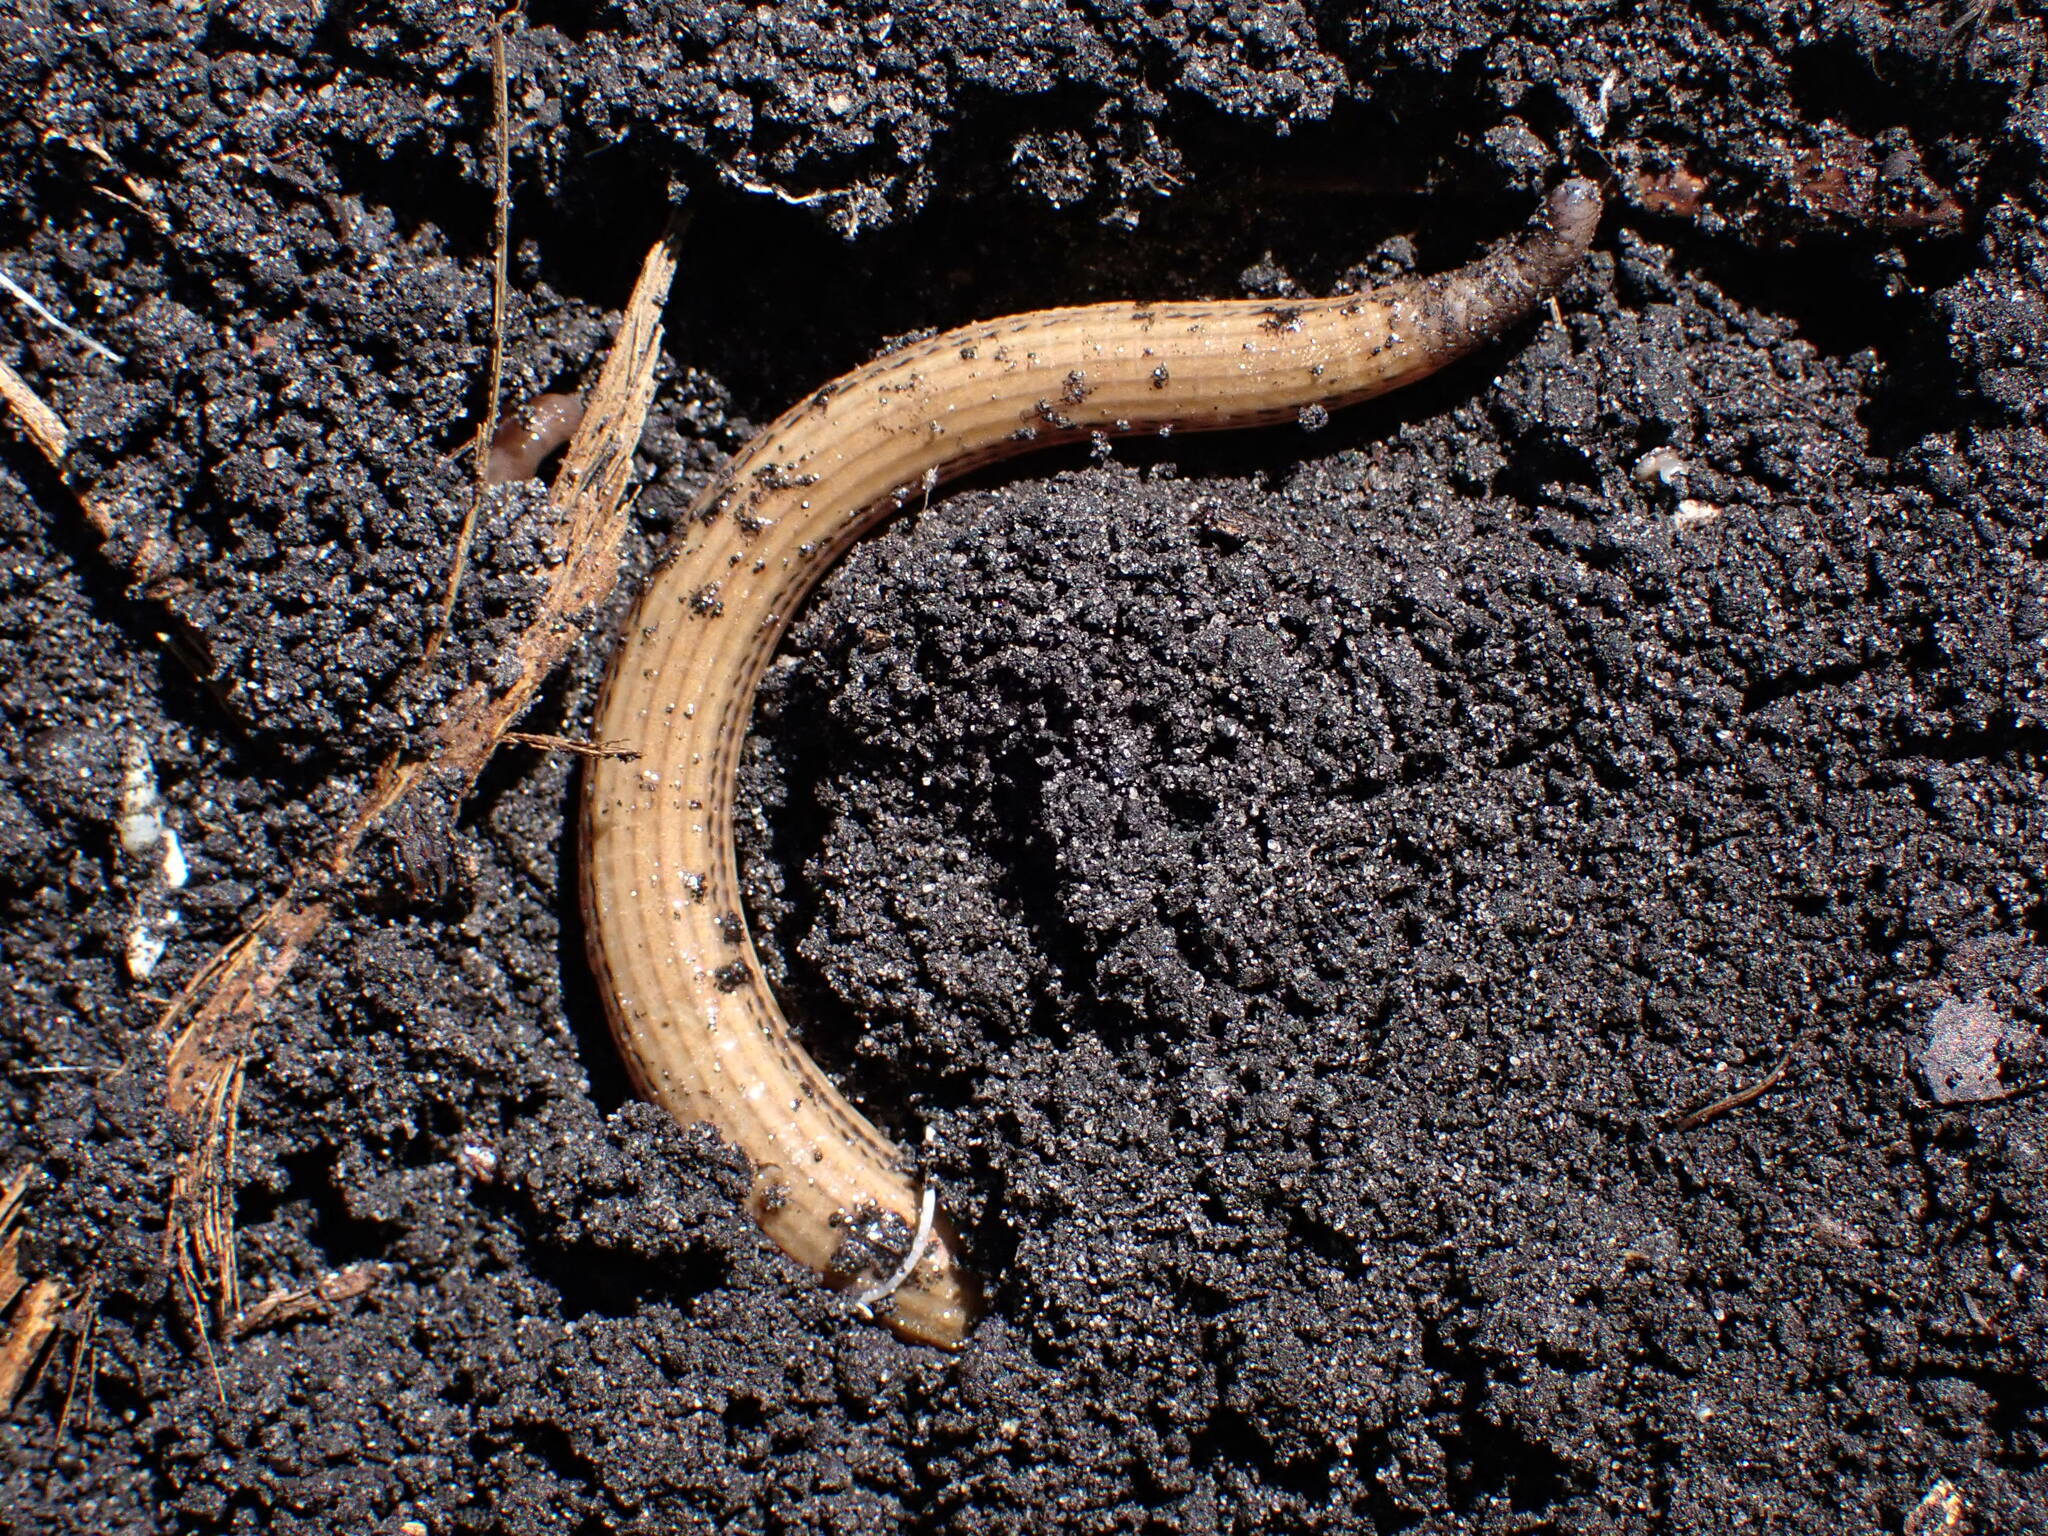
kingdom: Animalia
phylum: Chordata
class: Squamata
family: Anguidae
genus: Ophisaurus
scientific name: Ophisaurus ventralis
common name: Eastern glass lizard
